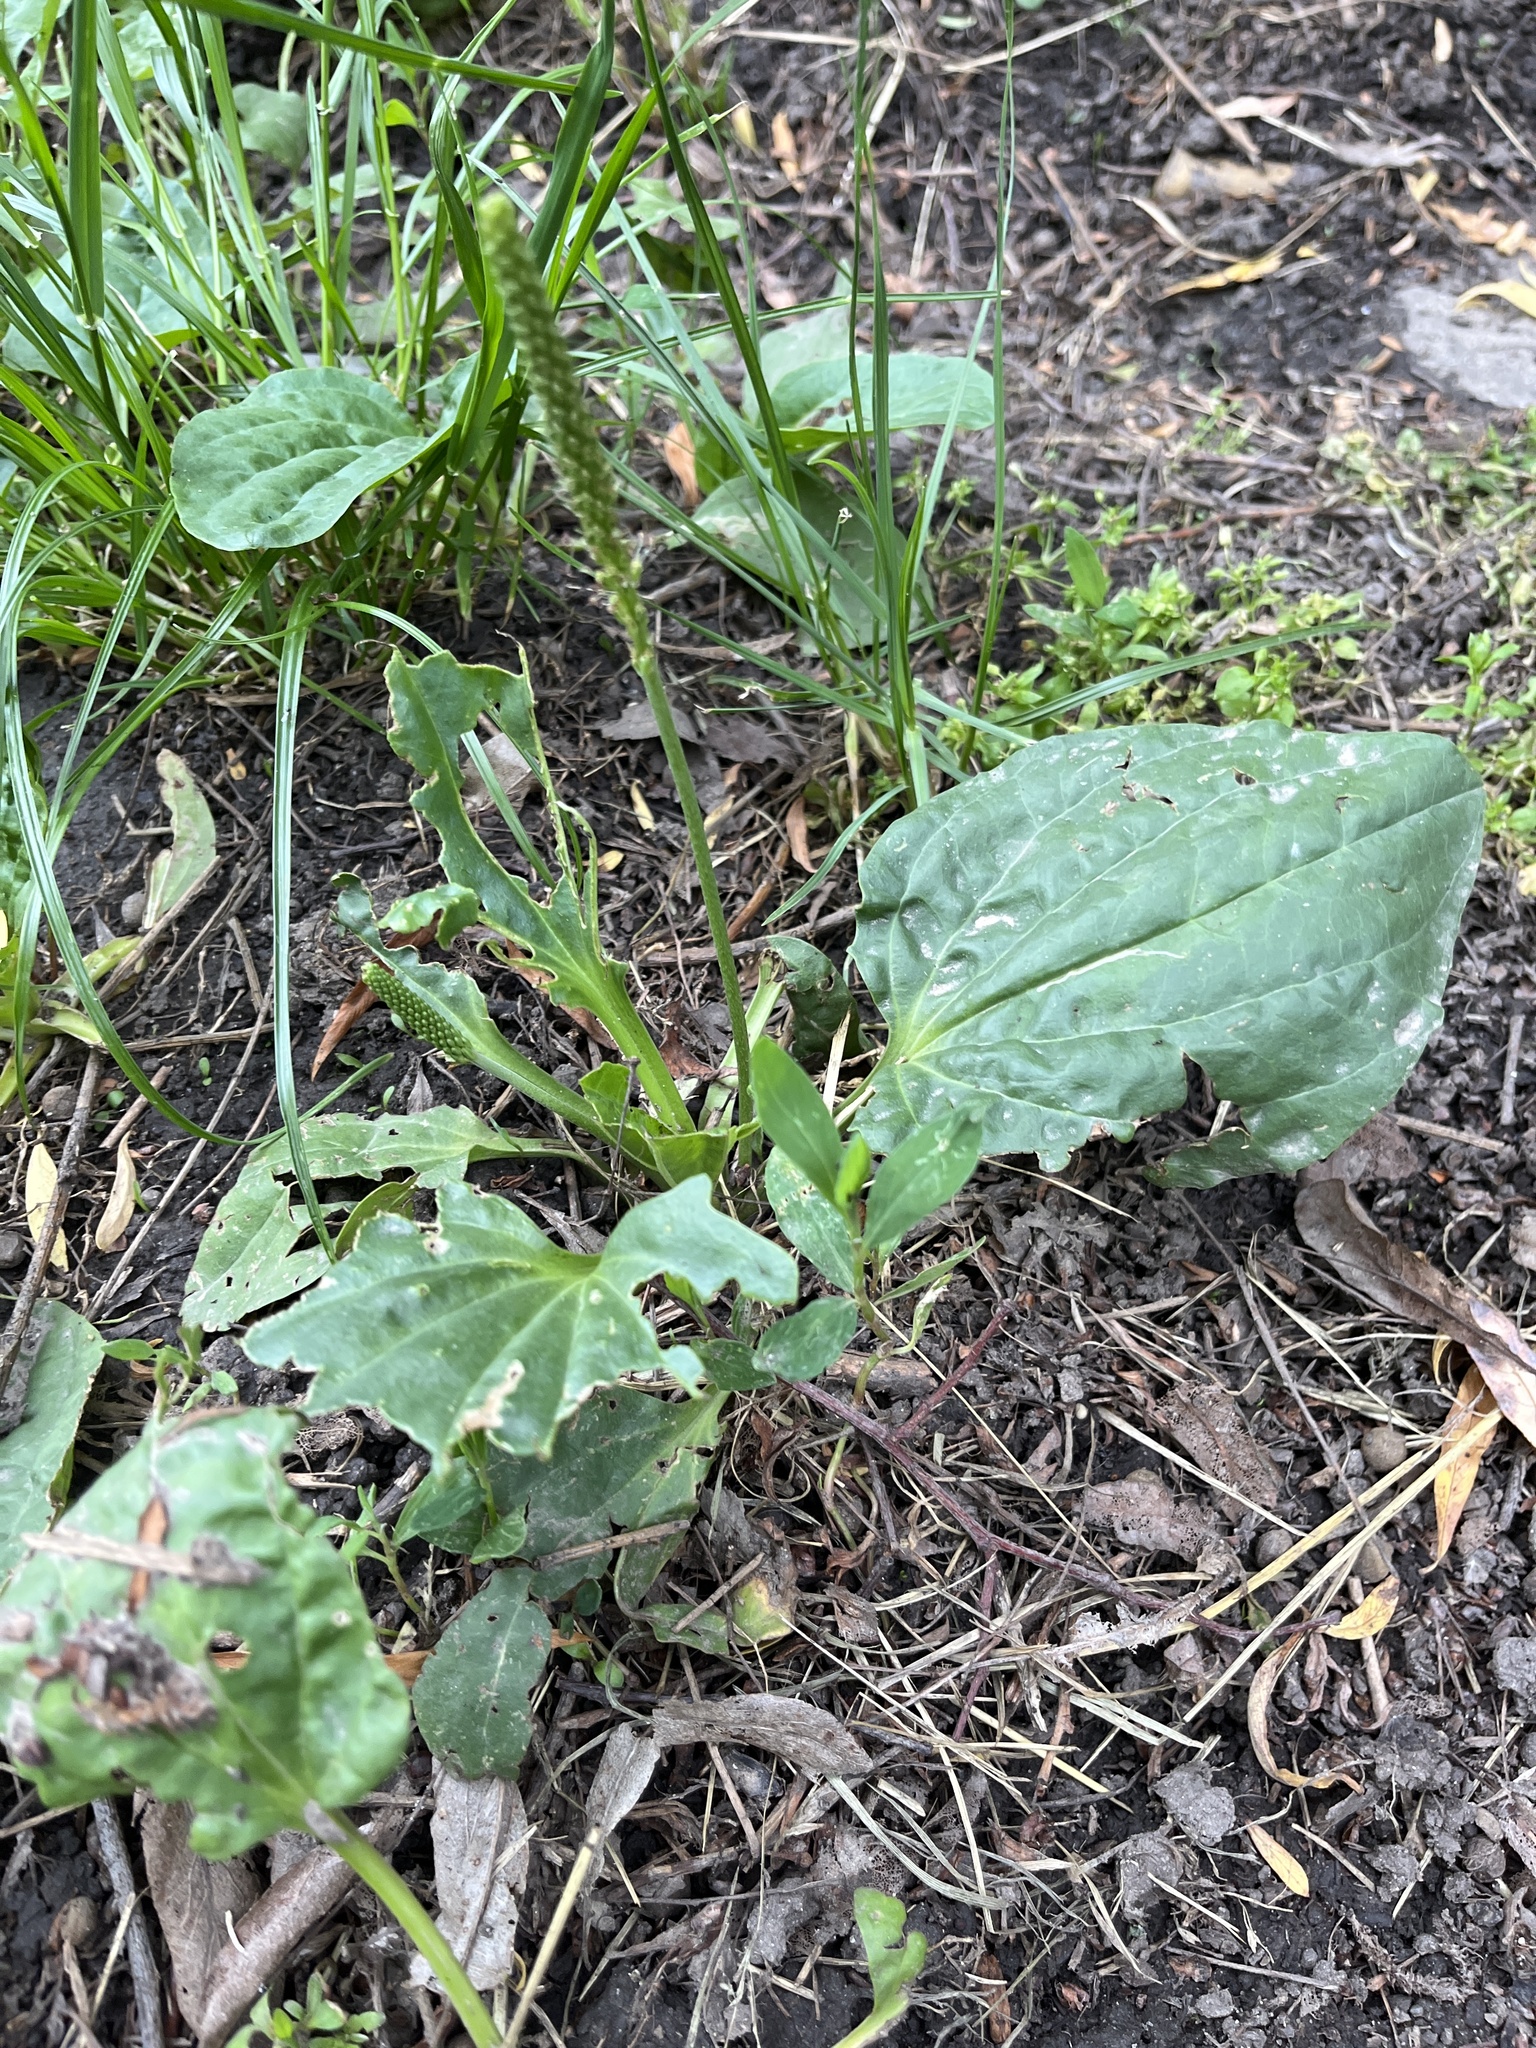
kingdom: Plantae
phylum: Tracheophyta
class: Magnoliopsida
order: Lamiales
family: Plantaginaceae
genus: Plantago
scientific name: Plantago major
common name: Common plantain
